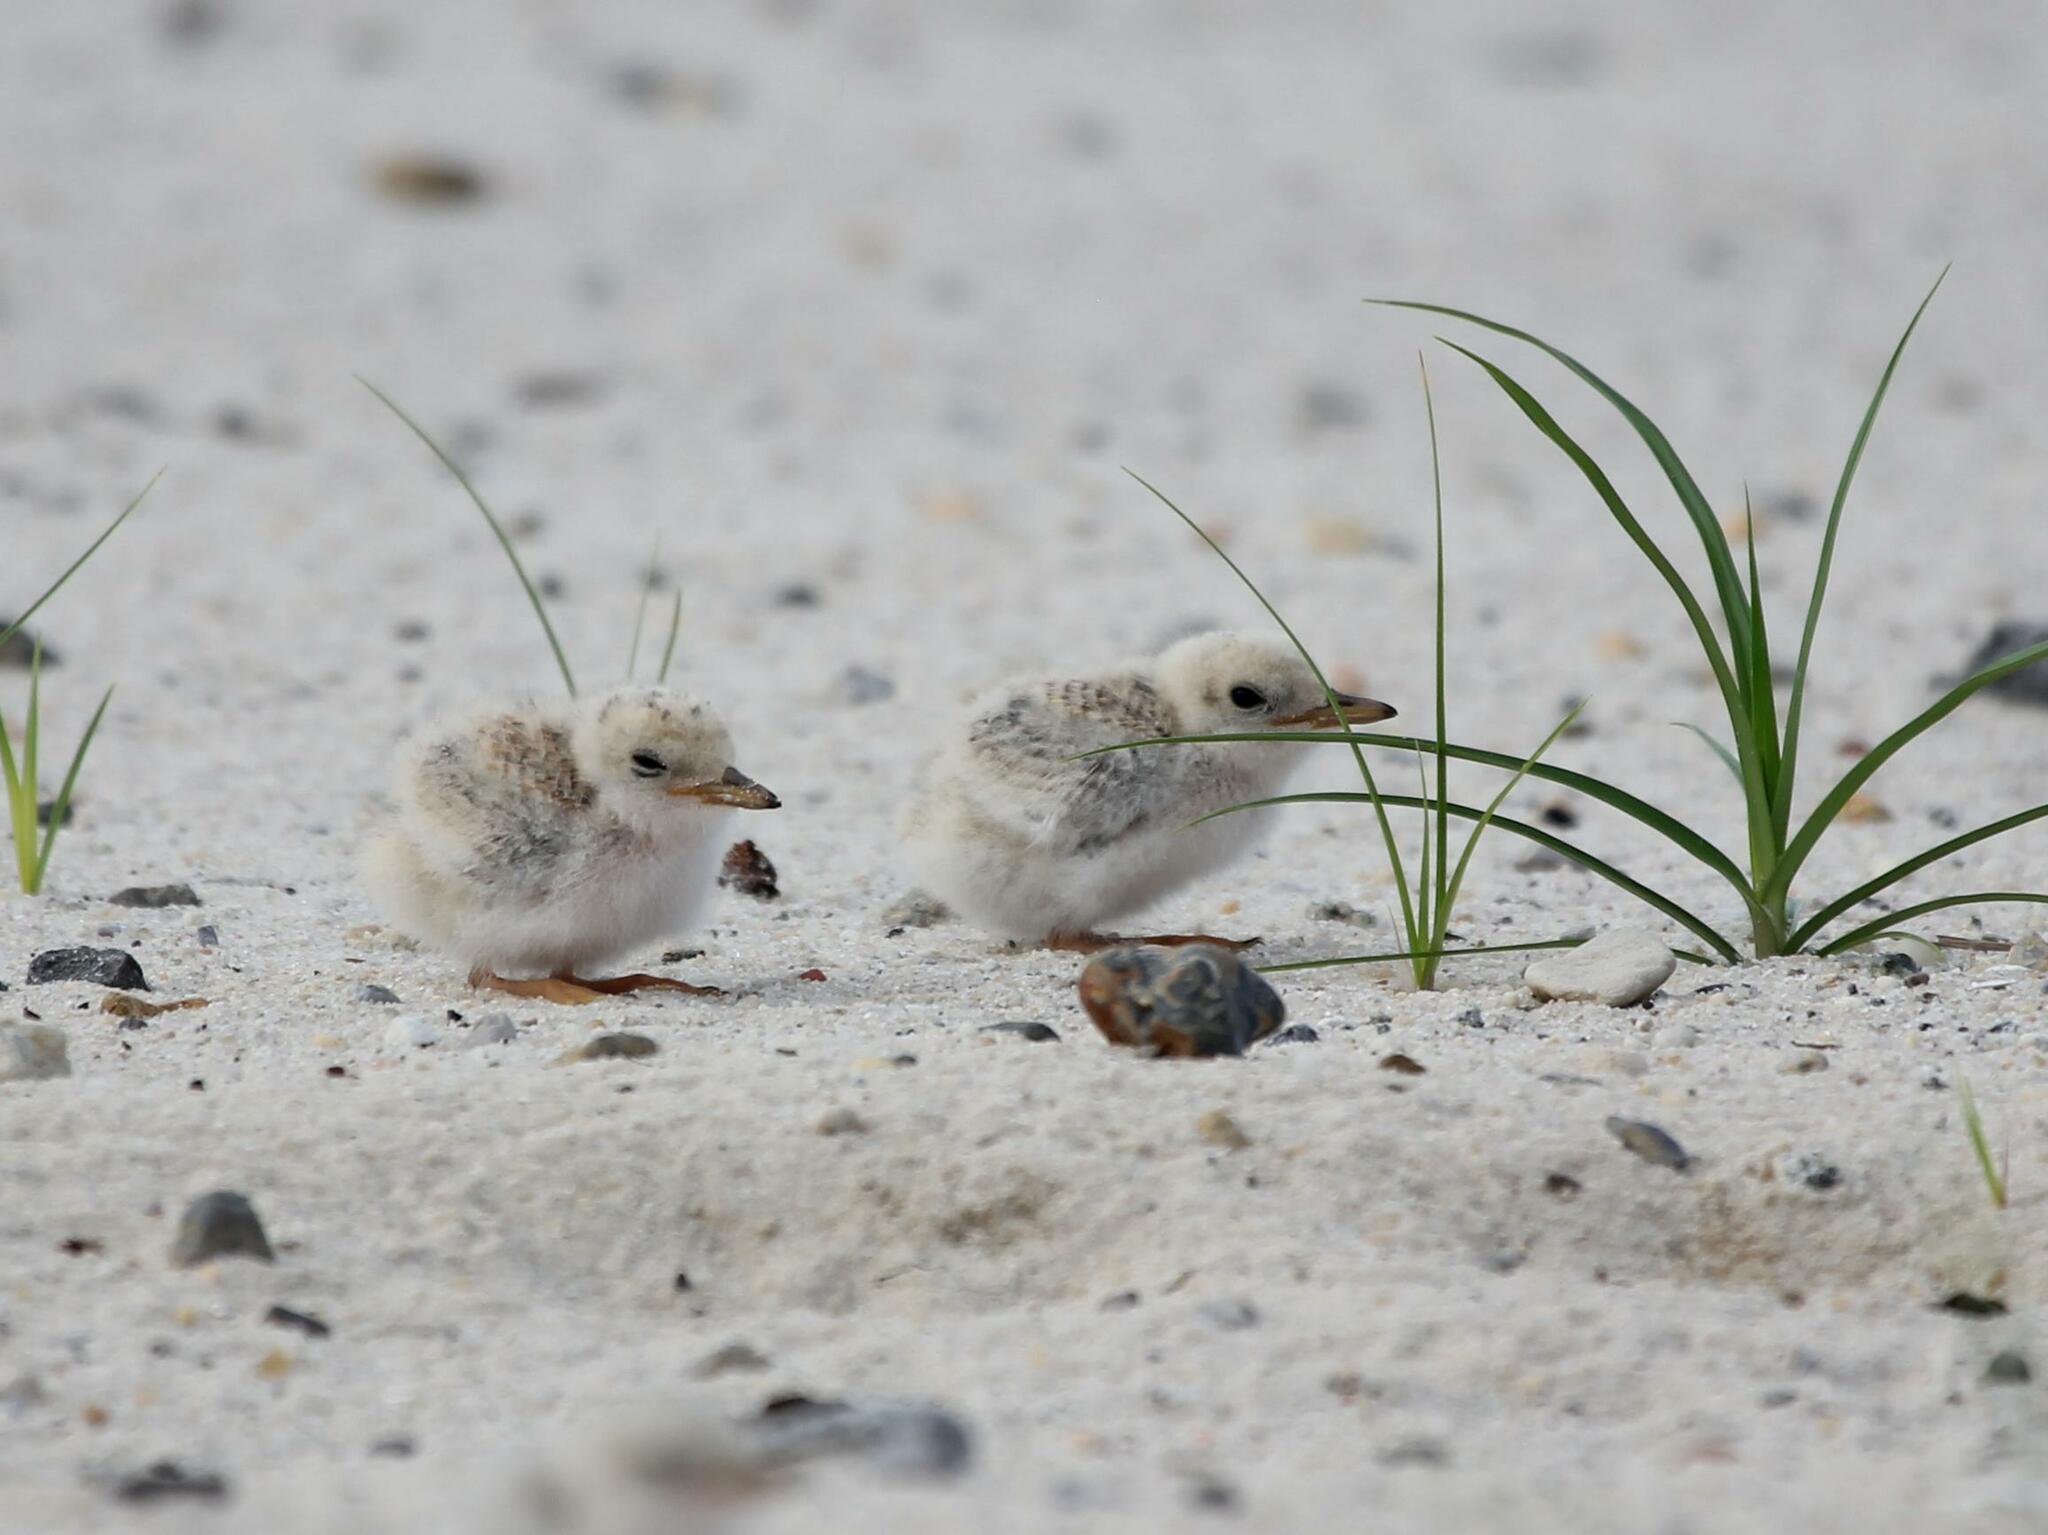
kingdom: Animalia
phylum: Chordata
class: Aves
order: Charadriiformes
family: Laridae
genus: Sternula
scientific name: Sternula antillarum
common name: Least tern
